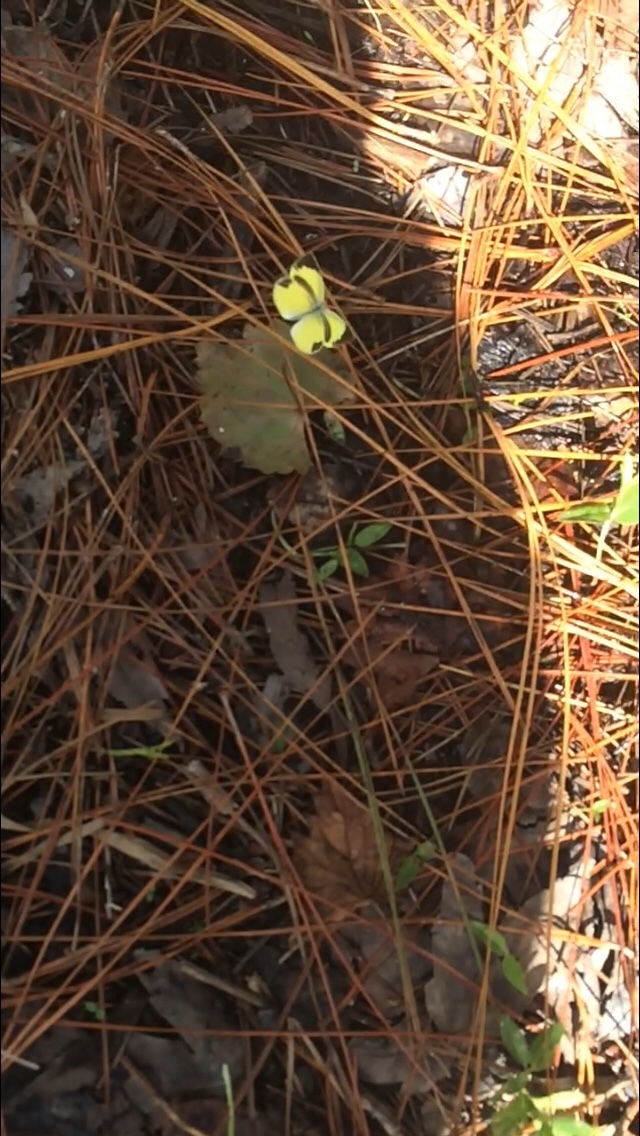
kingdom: Animalia
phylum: Arthropoda
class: Insecta
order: Lepidoptera
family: Pieridae
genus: Eurema
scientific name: Eurema daira
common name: Barred sulphur
